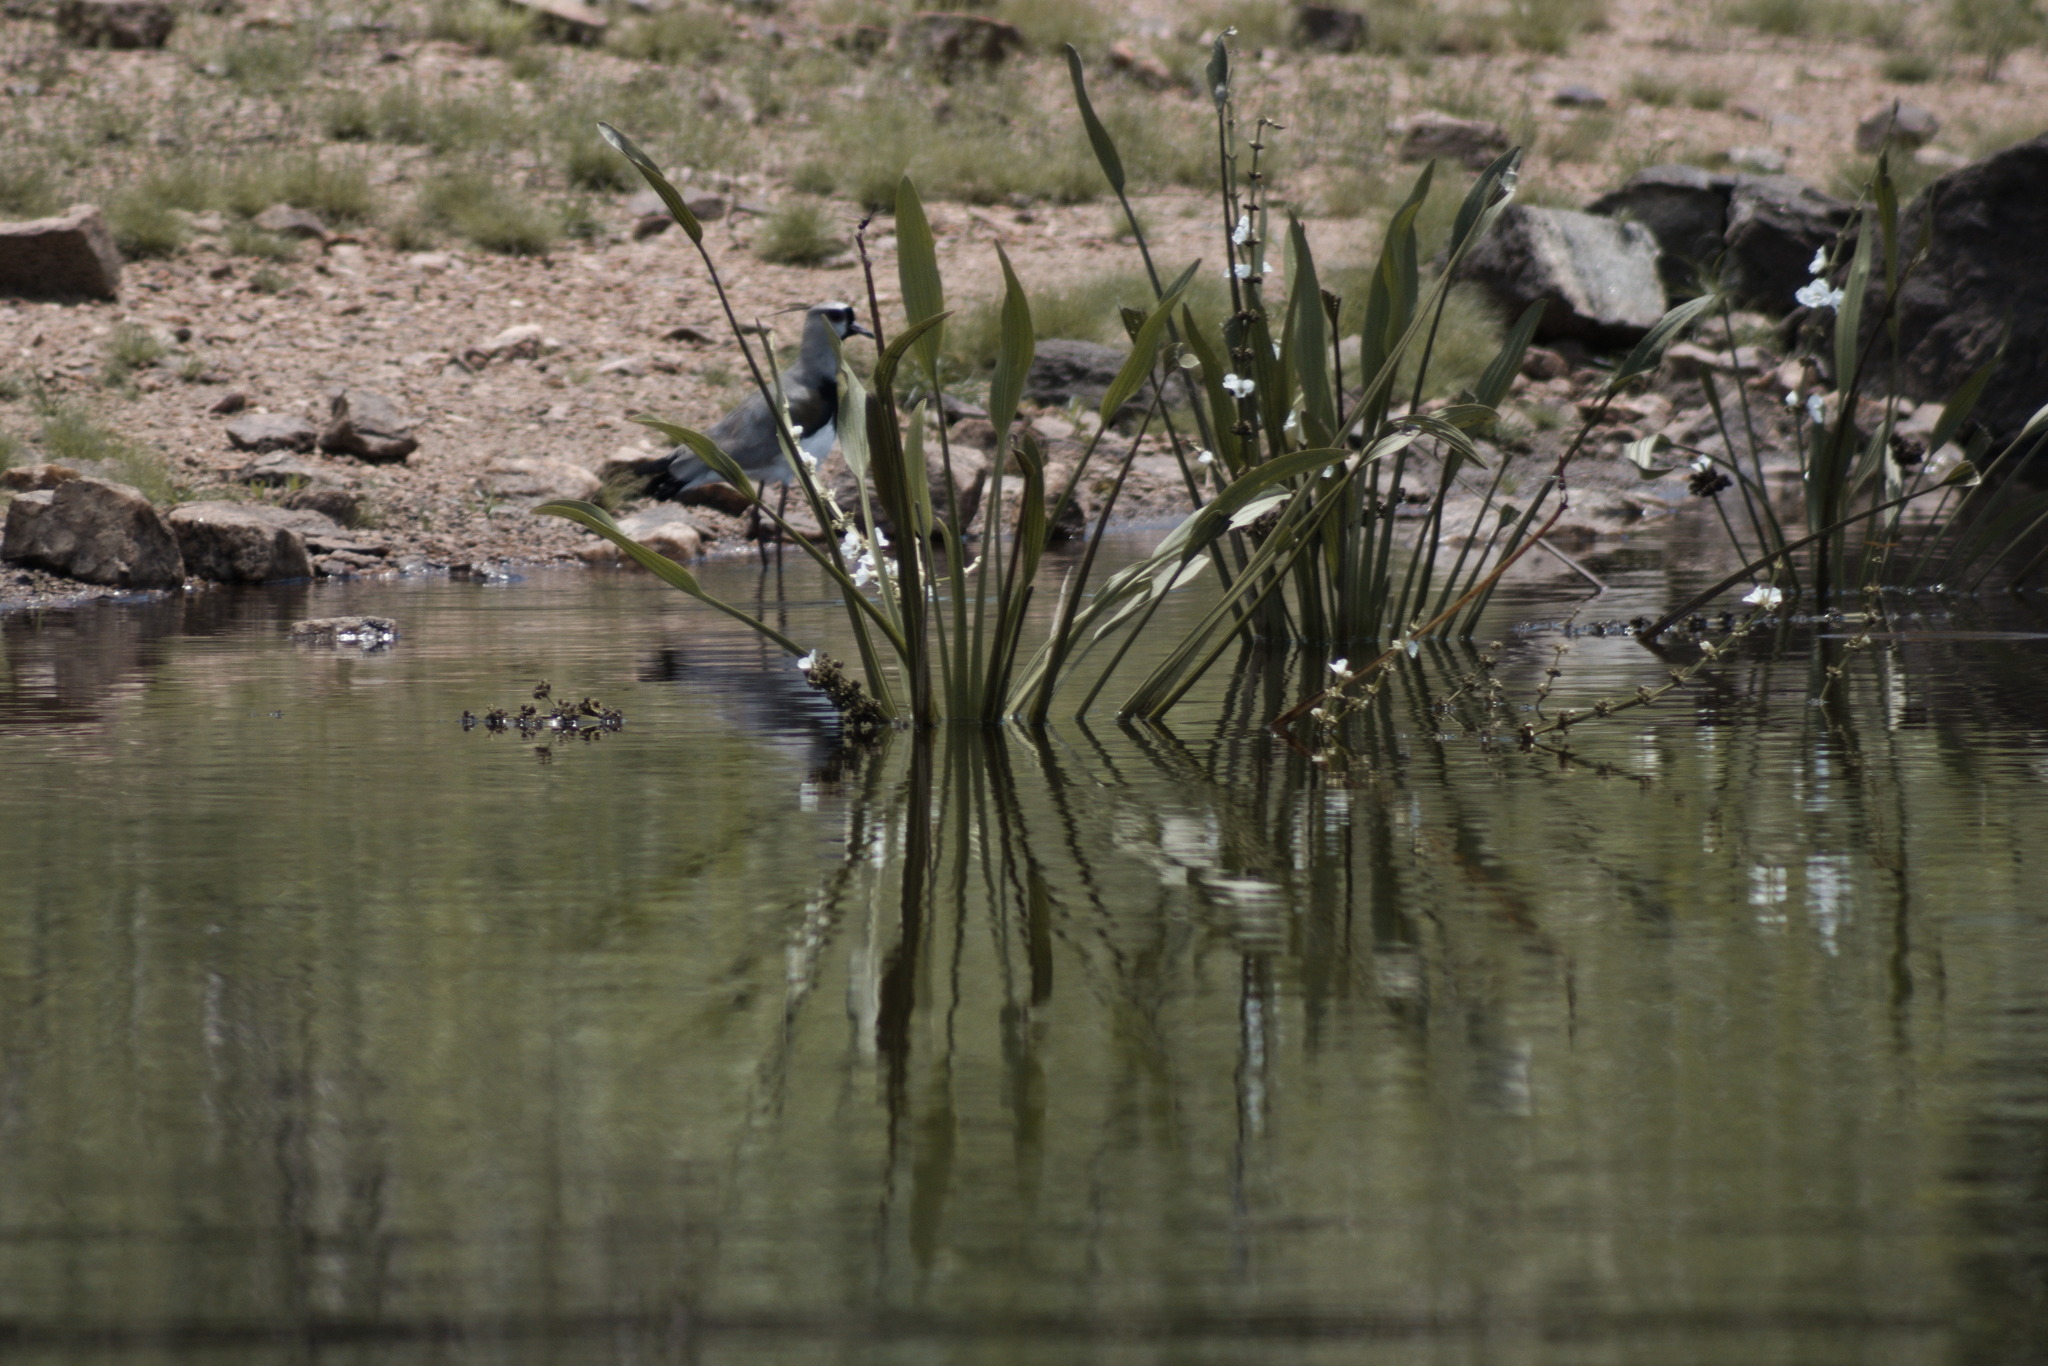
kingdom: Animalia
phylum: Chordata
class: Aves
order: Charadriiformes
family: Charadriidae
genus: Vanellus
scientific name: Vanellus chilensis
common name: Southern lapwing
